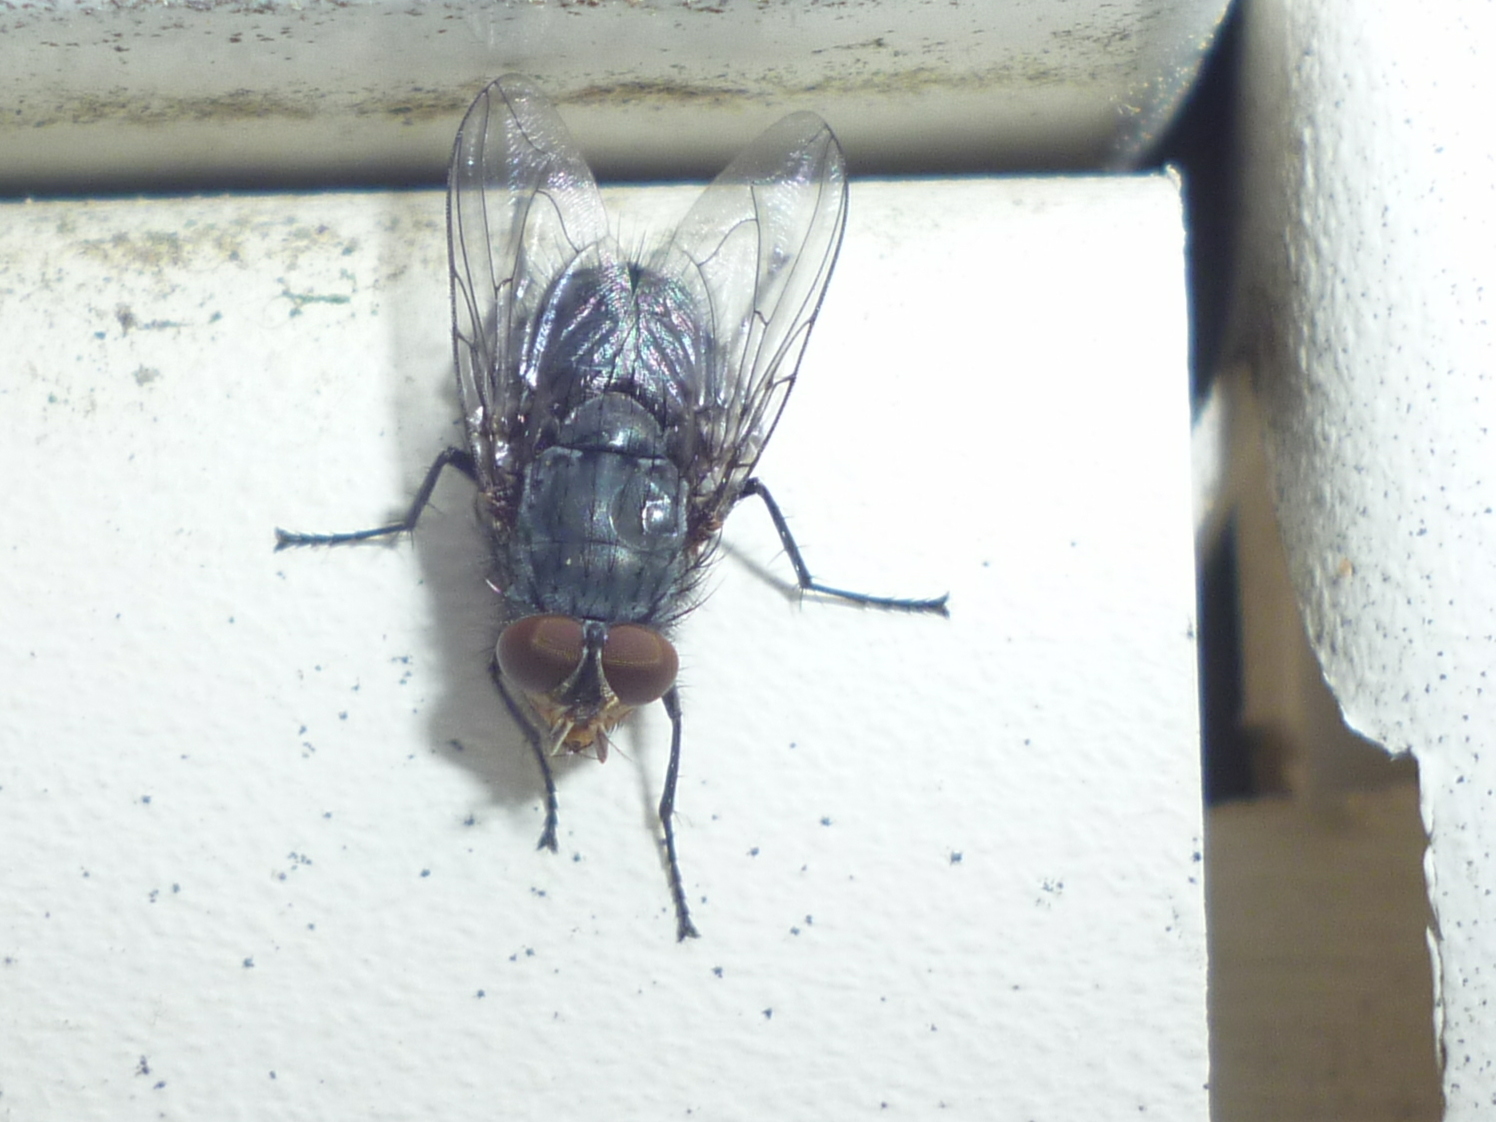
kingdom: Animalia
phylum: Arthropoda
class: Insecta
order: Diptera
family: Calliphoridae
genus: Calliphora
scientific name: Calliphora vicina
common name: Common blow flie
